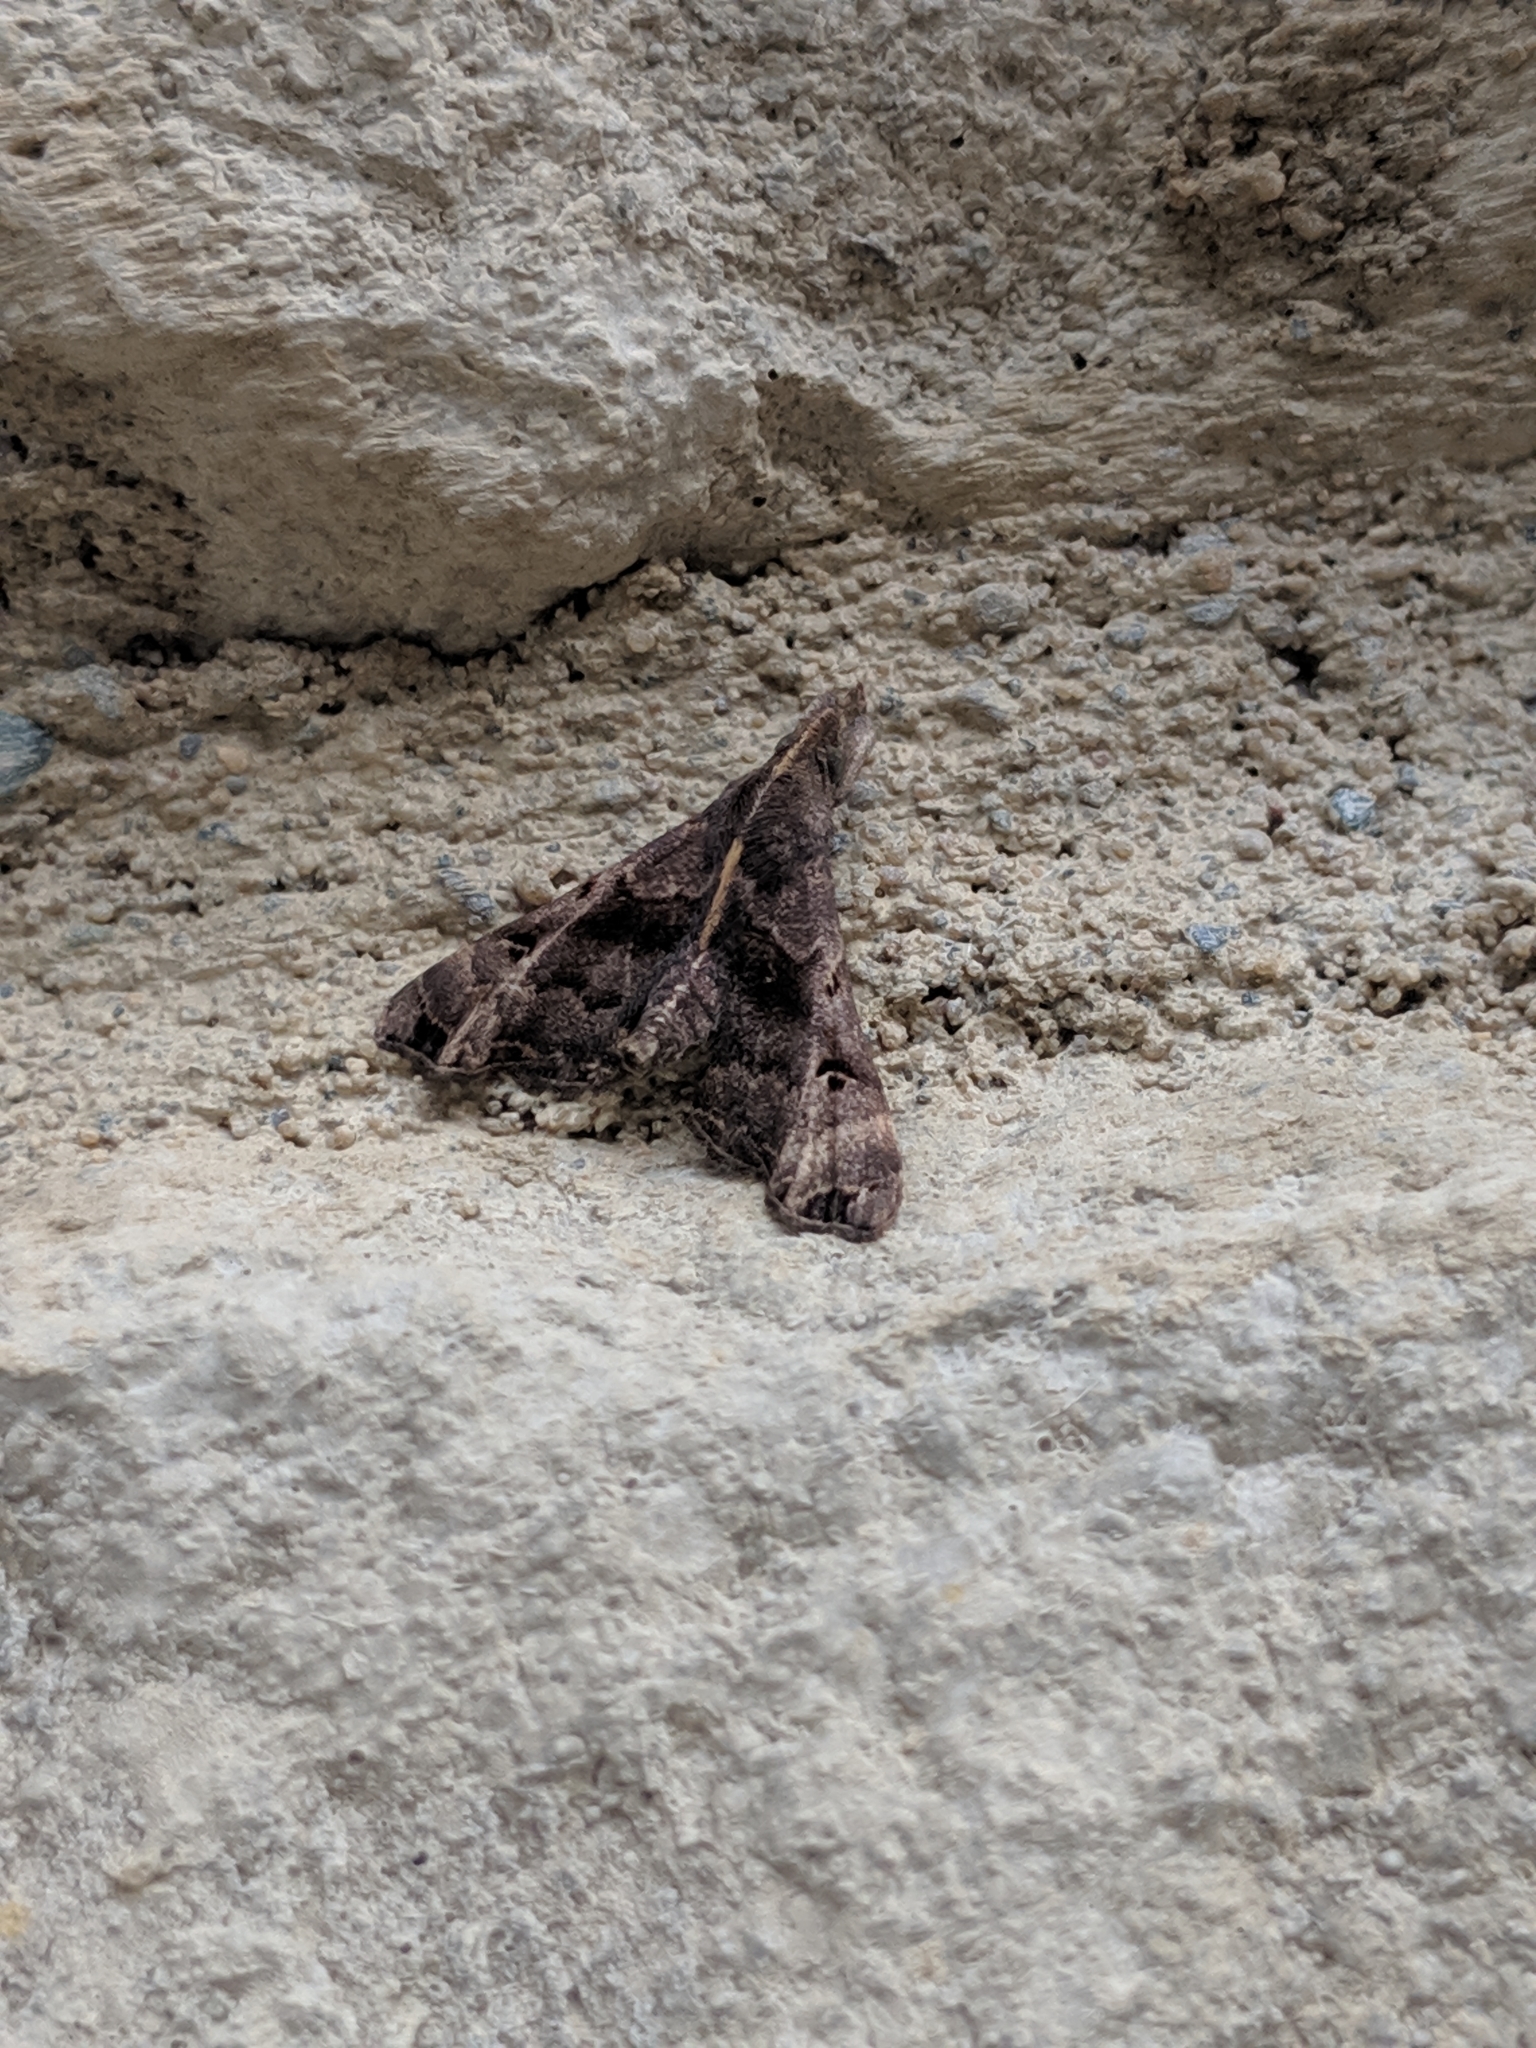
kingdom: Animalia
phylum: Arthropoda
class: Insecta
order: Lepidoptera
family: Erebidae
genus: Palthis
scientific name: Palthis asopialis
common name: Faint-spotted palthis moth
